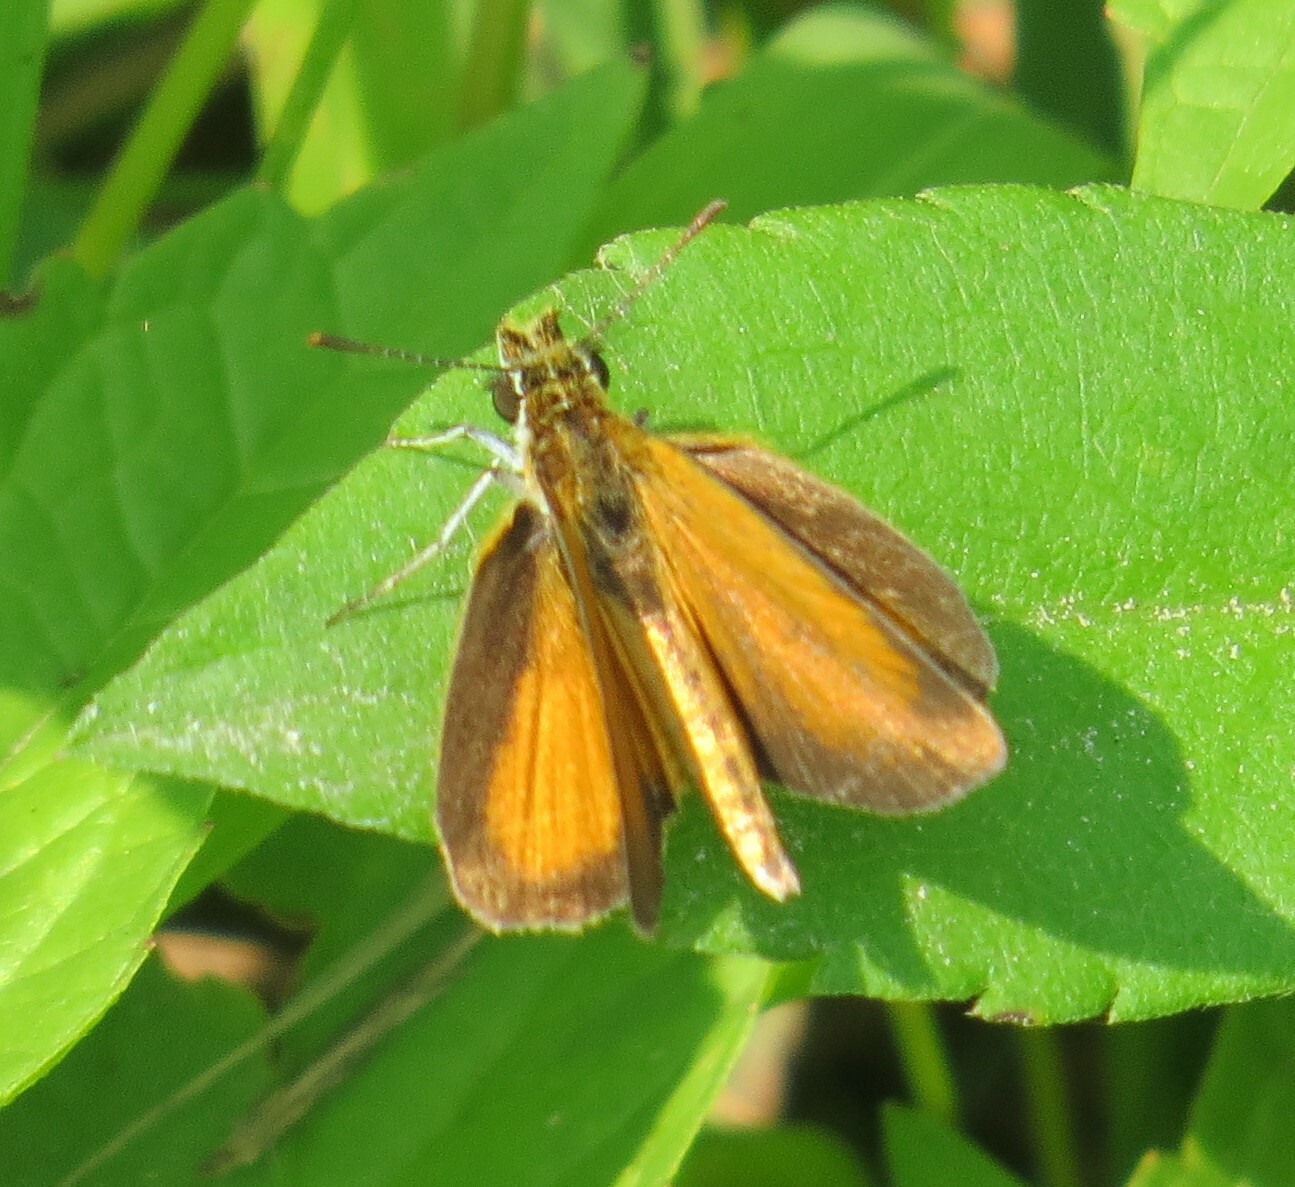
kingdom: Animalia
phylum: Arthropoda
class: Insecta
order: Lepidoptera
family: Hesperiidae
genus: Ancyloxypha
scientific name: Ancyloxypha numitor
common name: Least skipper
